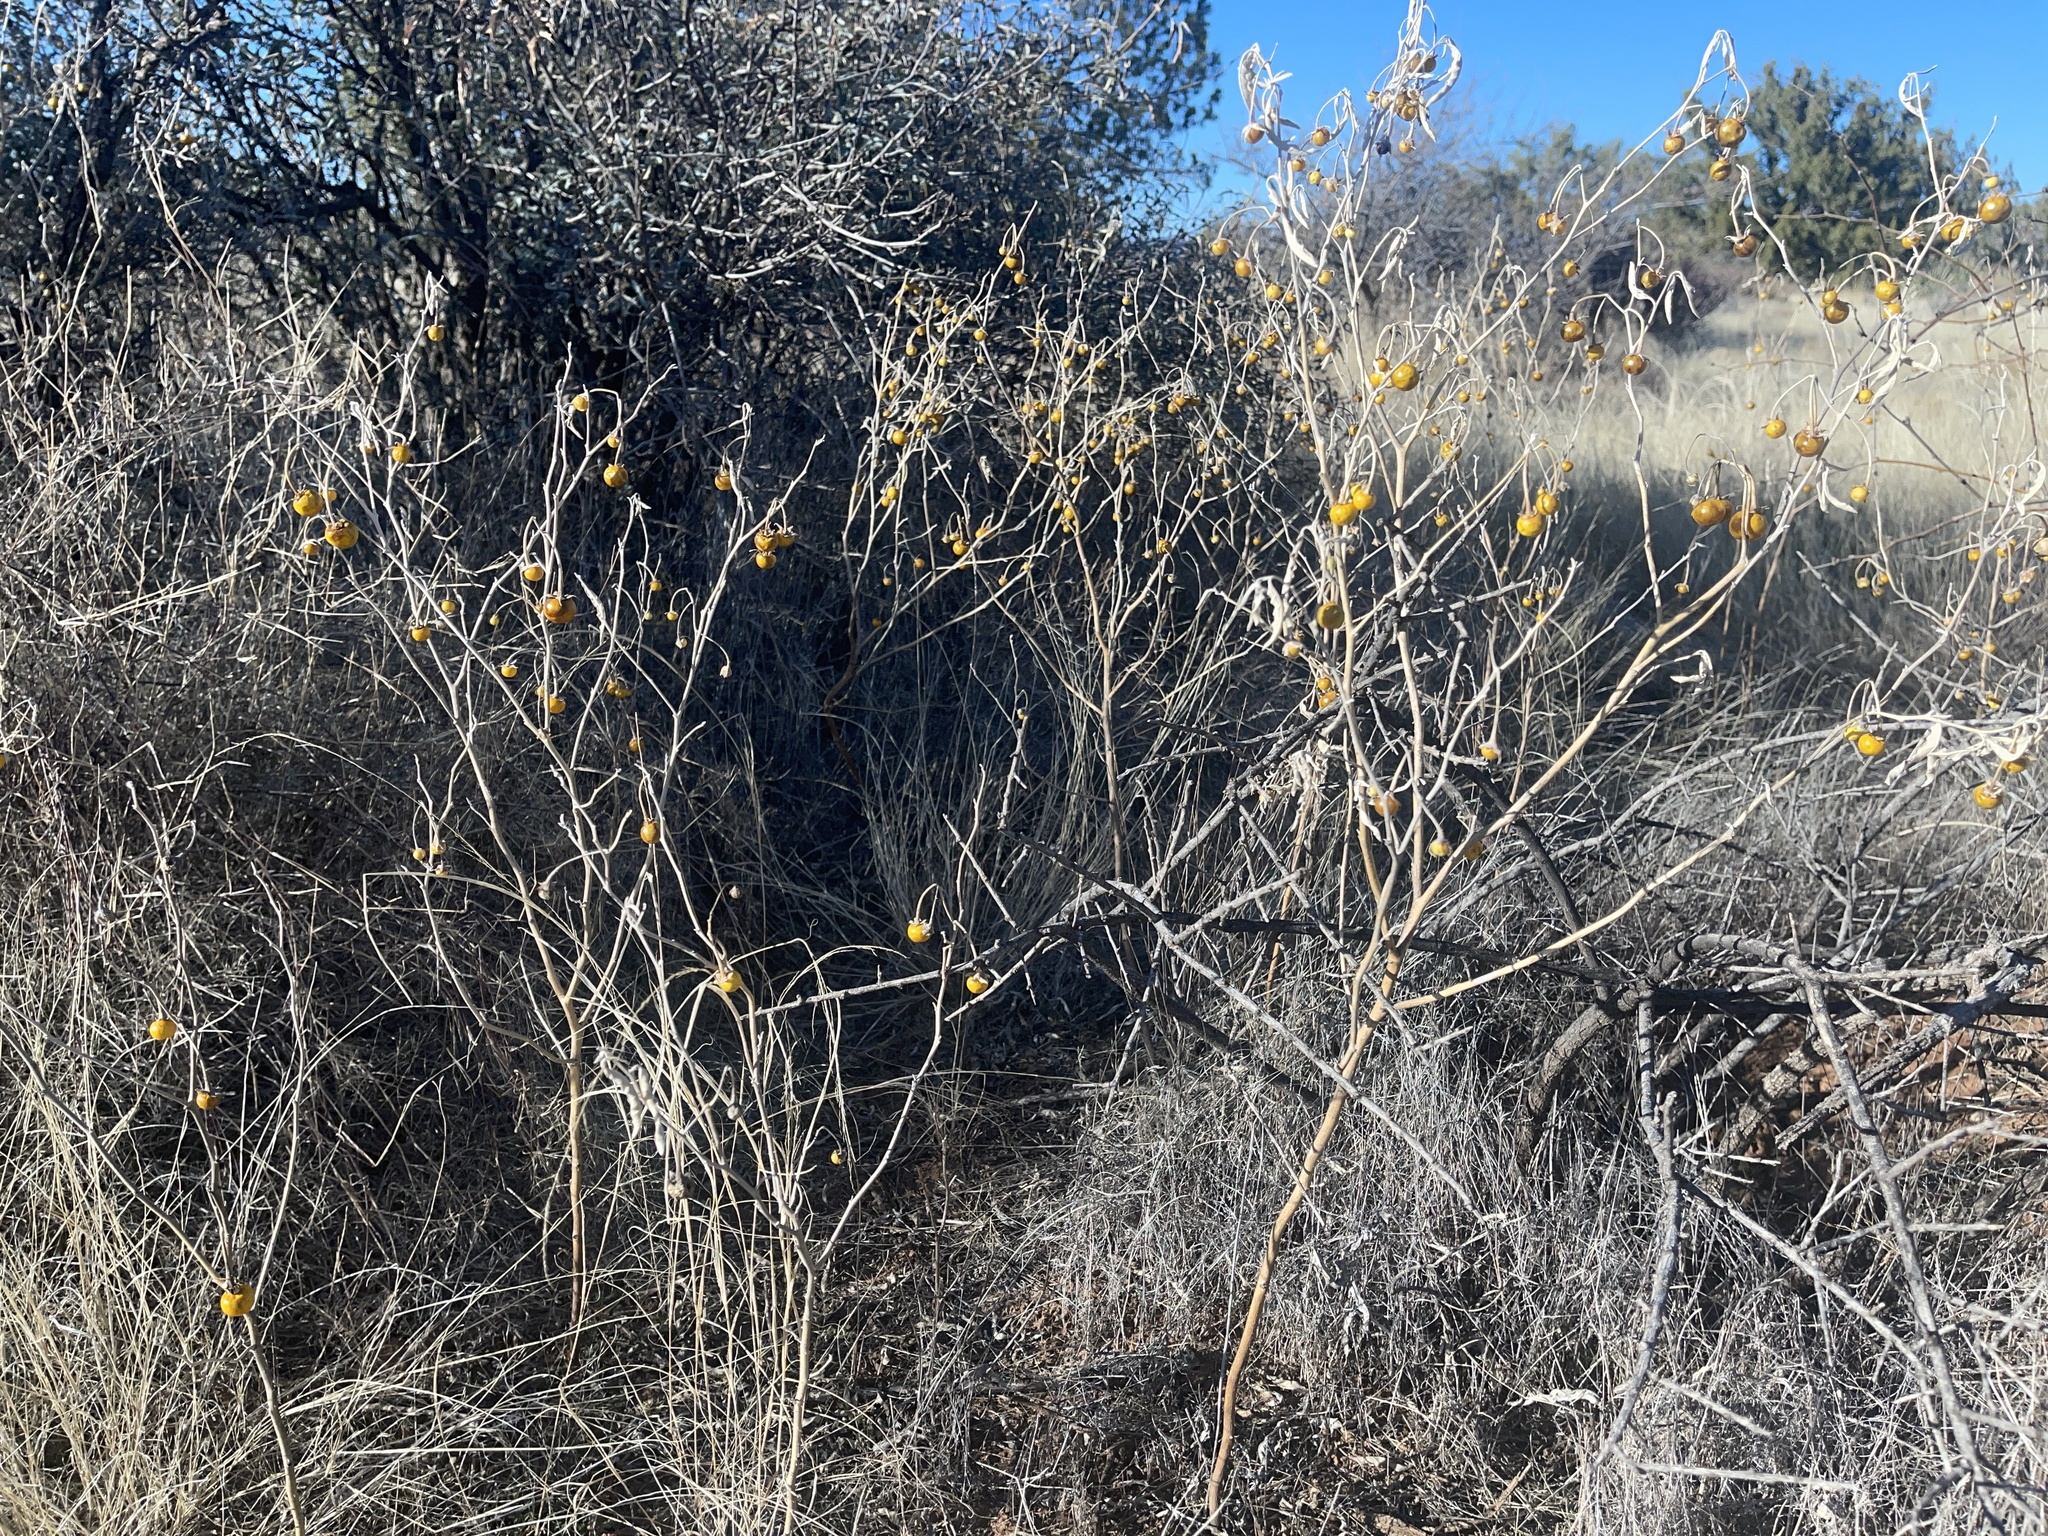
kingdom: Plantae
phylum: Tracheophyta
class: Magnoliopsida
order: Solanales
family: Solanaceae
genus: Solanum
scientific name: Solanum elaeagnifolium
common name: Silverleaf nightshade
